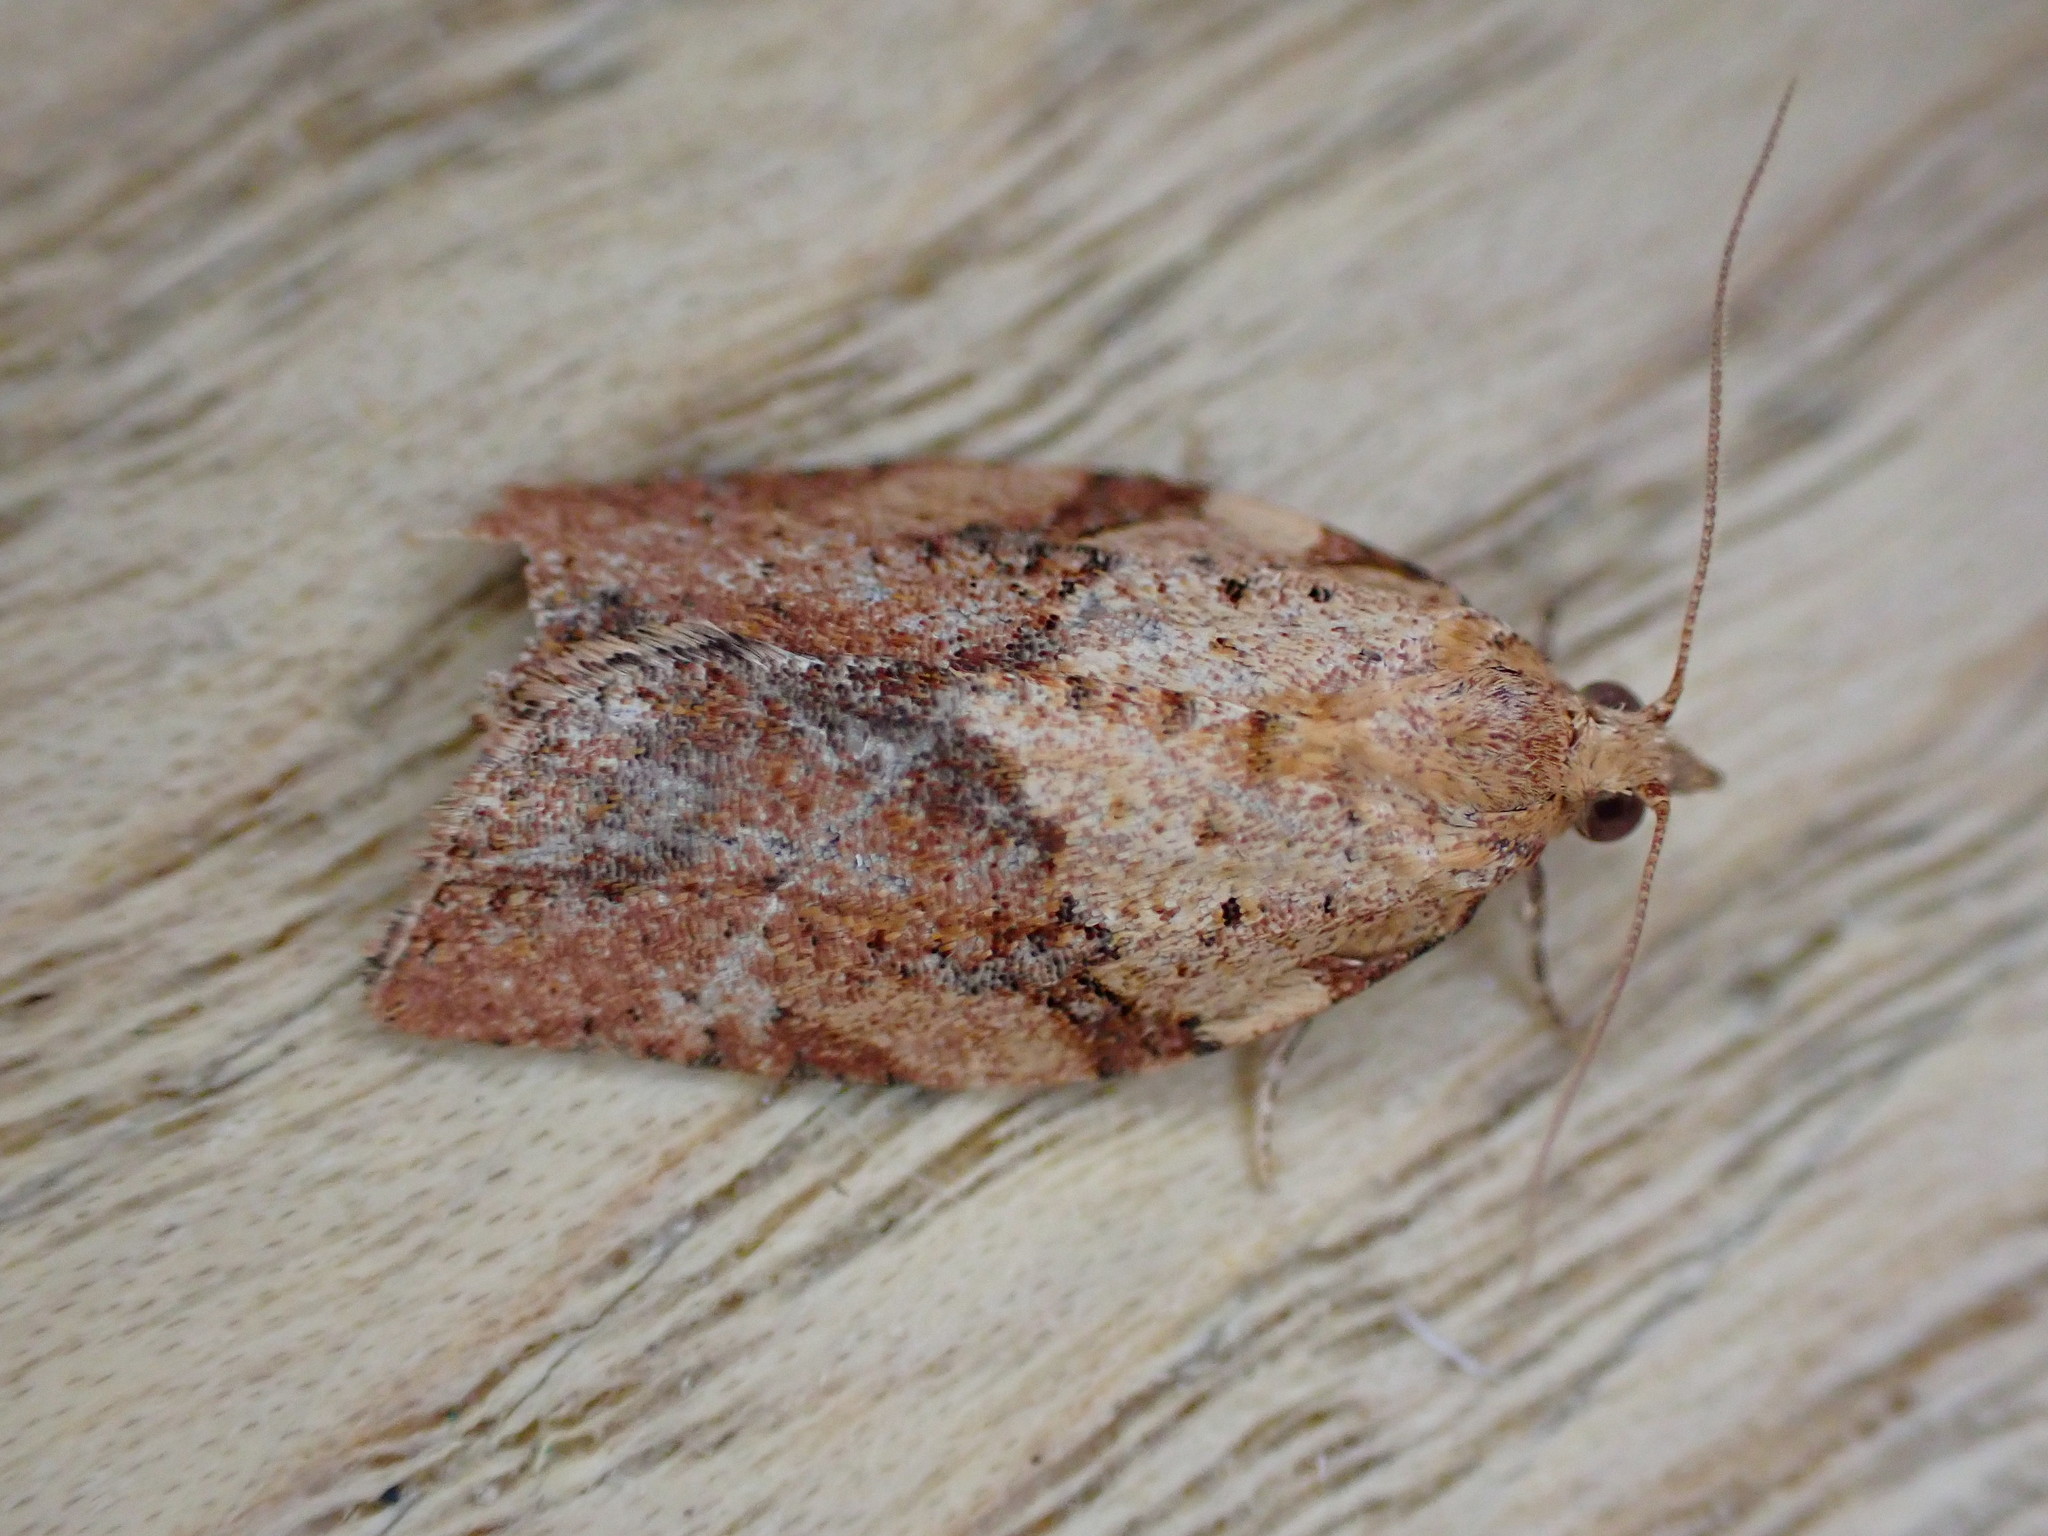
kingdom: Animalia
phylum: Arthropoda
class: Insecta
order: Lepidoptera
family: Tortricidae
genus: Epiphyas
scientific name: Epiphyas postvittana
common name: Light brown apple moth
